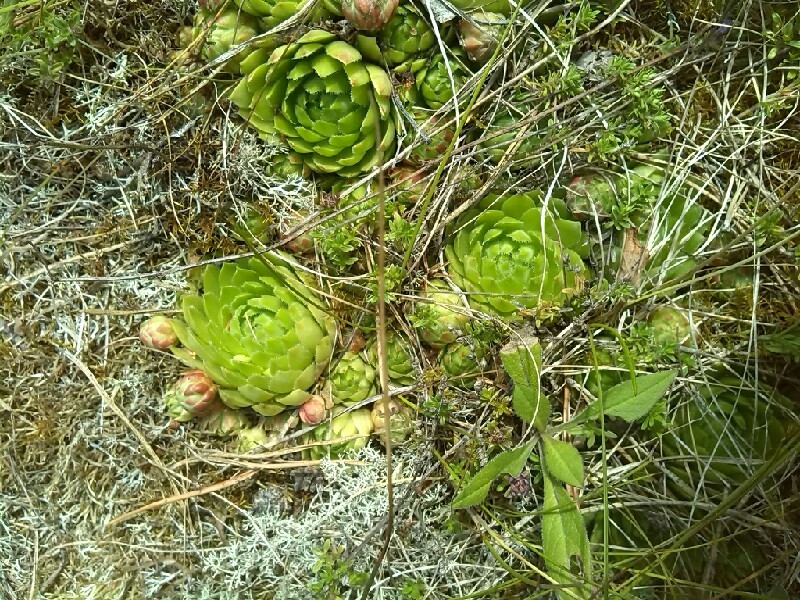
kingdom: Plantae
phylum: Tracheophyta
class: Magnoliopsida
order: Saxifragales
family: Crassulaceae
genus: Sempervivum
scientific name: Sempervivum globiferum
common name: Rolling hen-and-chicks
